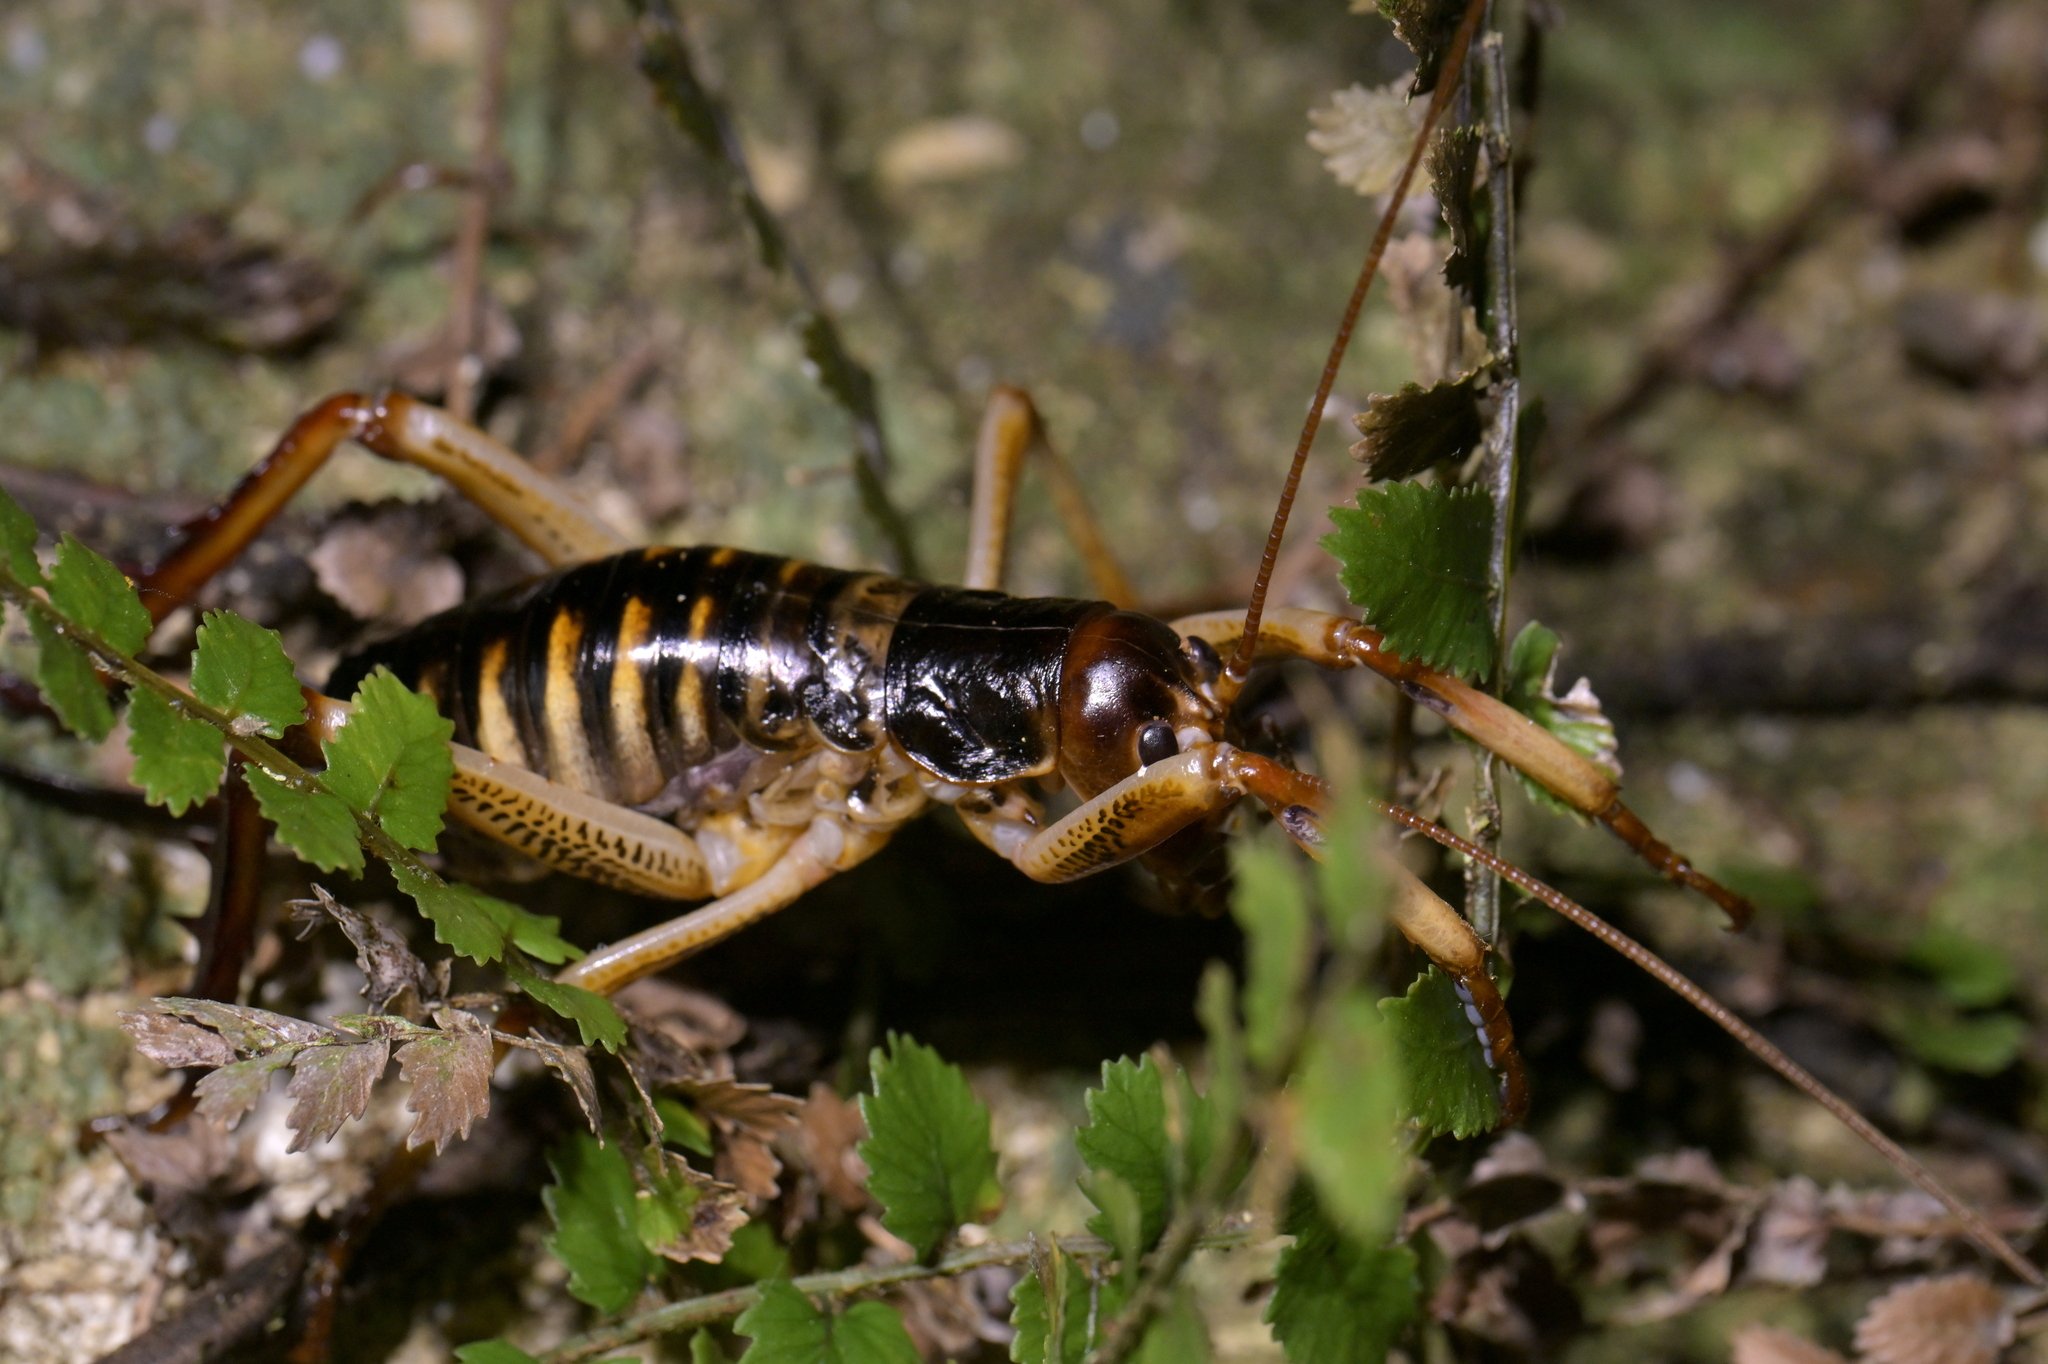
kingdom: Animalia
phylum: Arthropoda
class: Insecta
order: Orthoptera
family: Anostostomatidae
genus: Hemideina
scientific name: Hemideina crassidens
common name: Wellington tree weta
